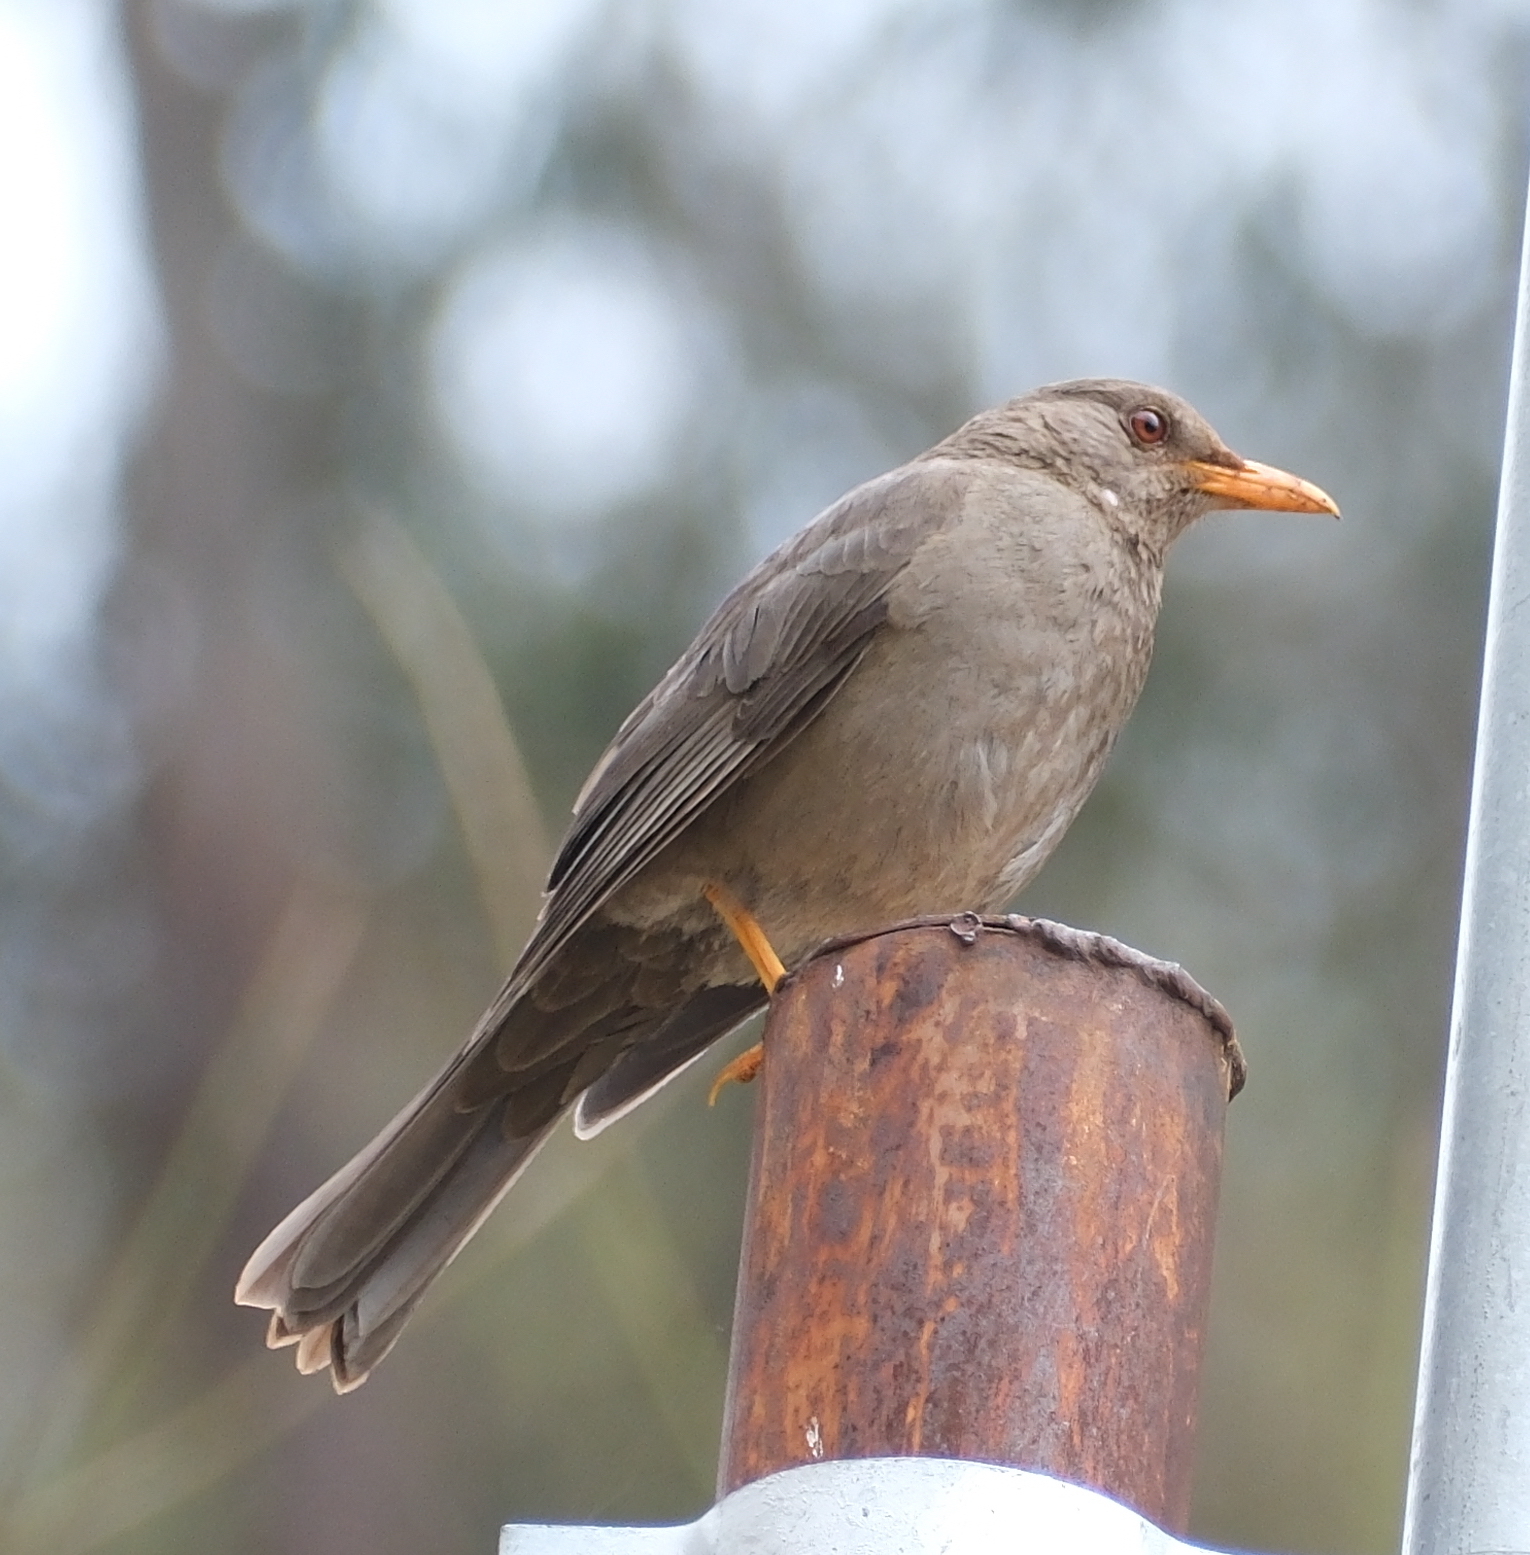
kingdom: Animalia
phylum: Chordata
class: Aves
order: Passeriformes
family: Turdidae
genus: Turdus
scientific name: Turdus chiguanco
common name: Chiguanco thrush
